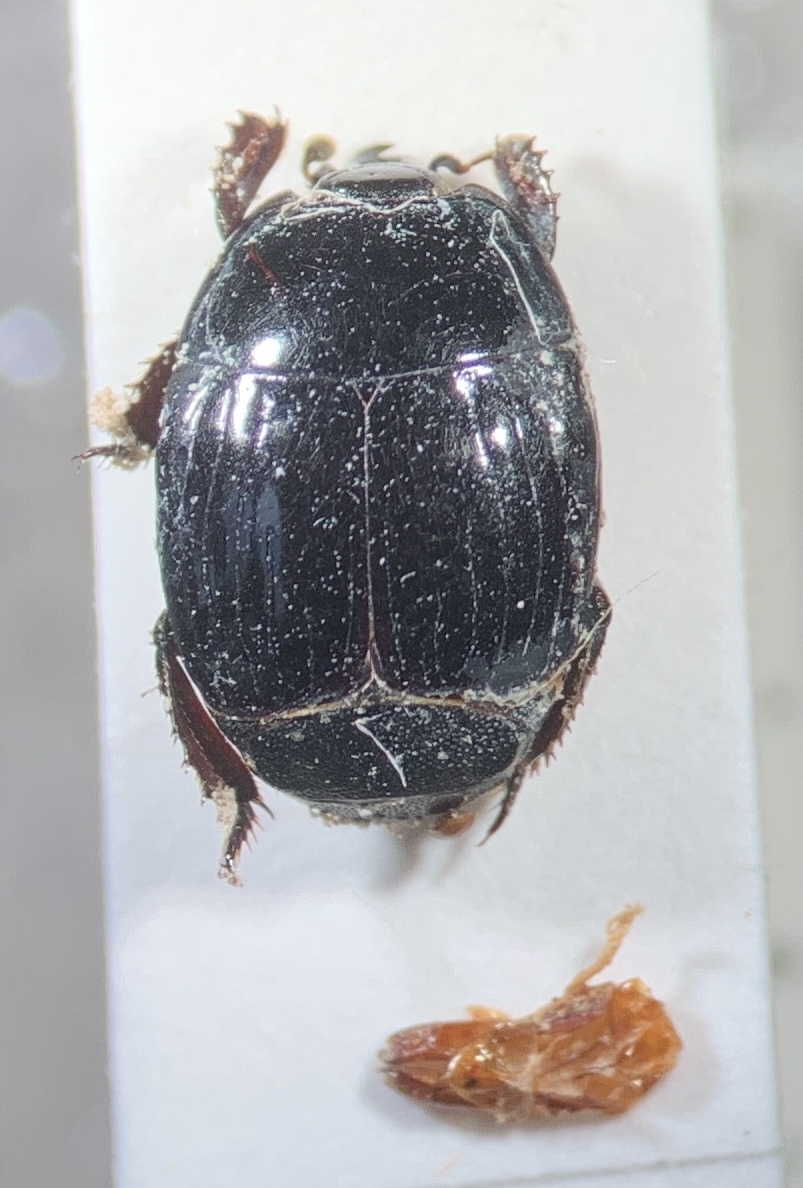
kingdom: Animalia
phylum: Arthropoda
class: Insecta
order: Coleoptera
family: Histeridae
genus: Margarinotus
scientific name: Margarinotus ignobilis
